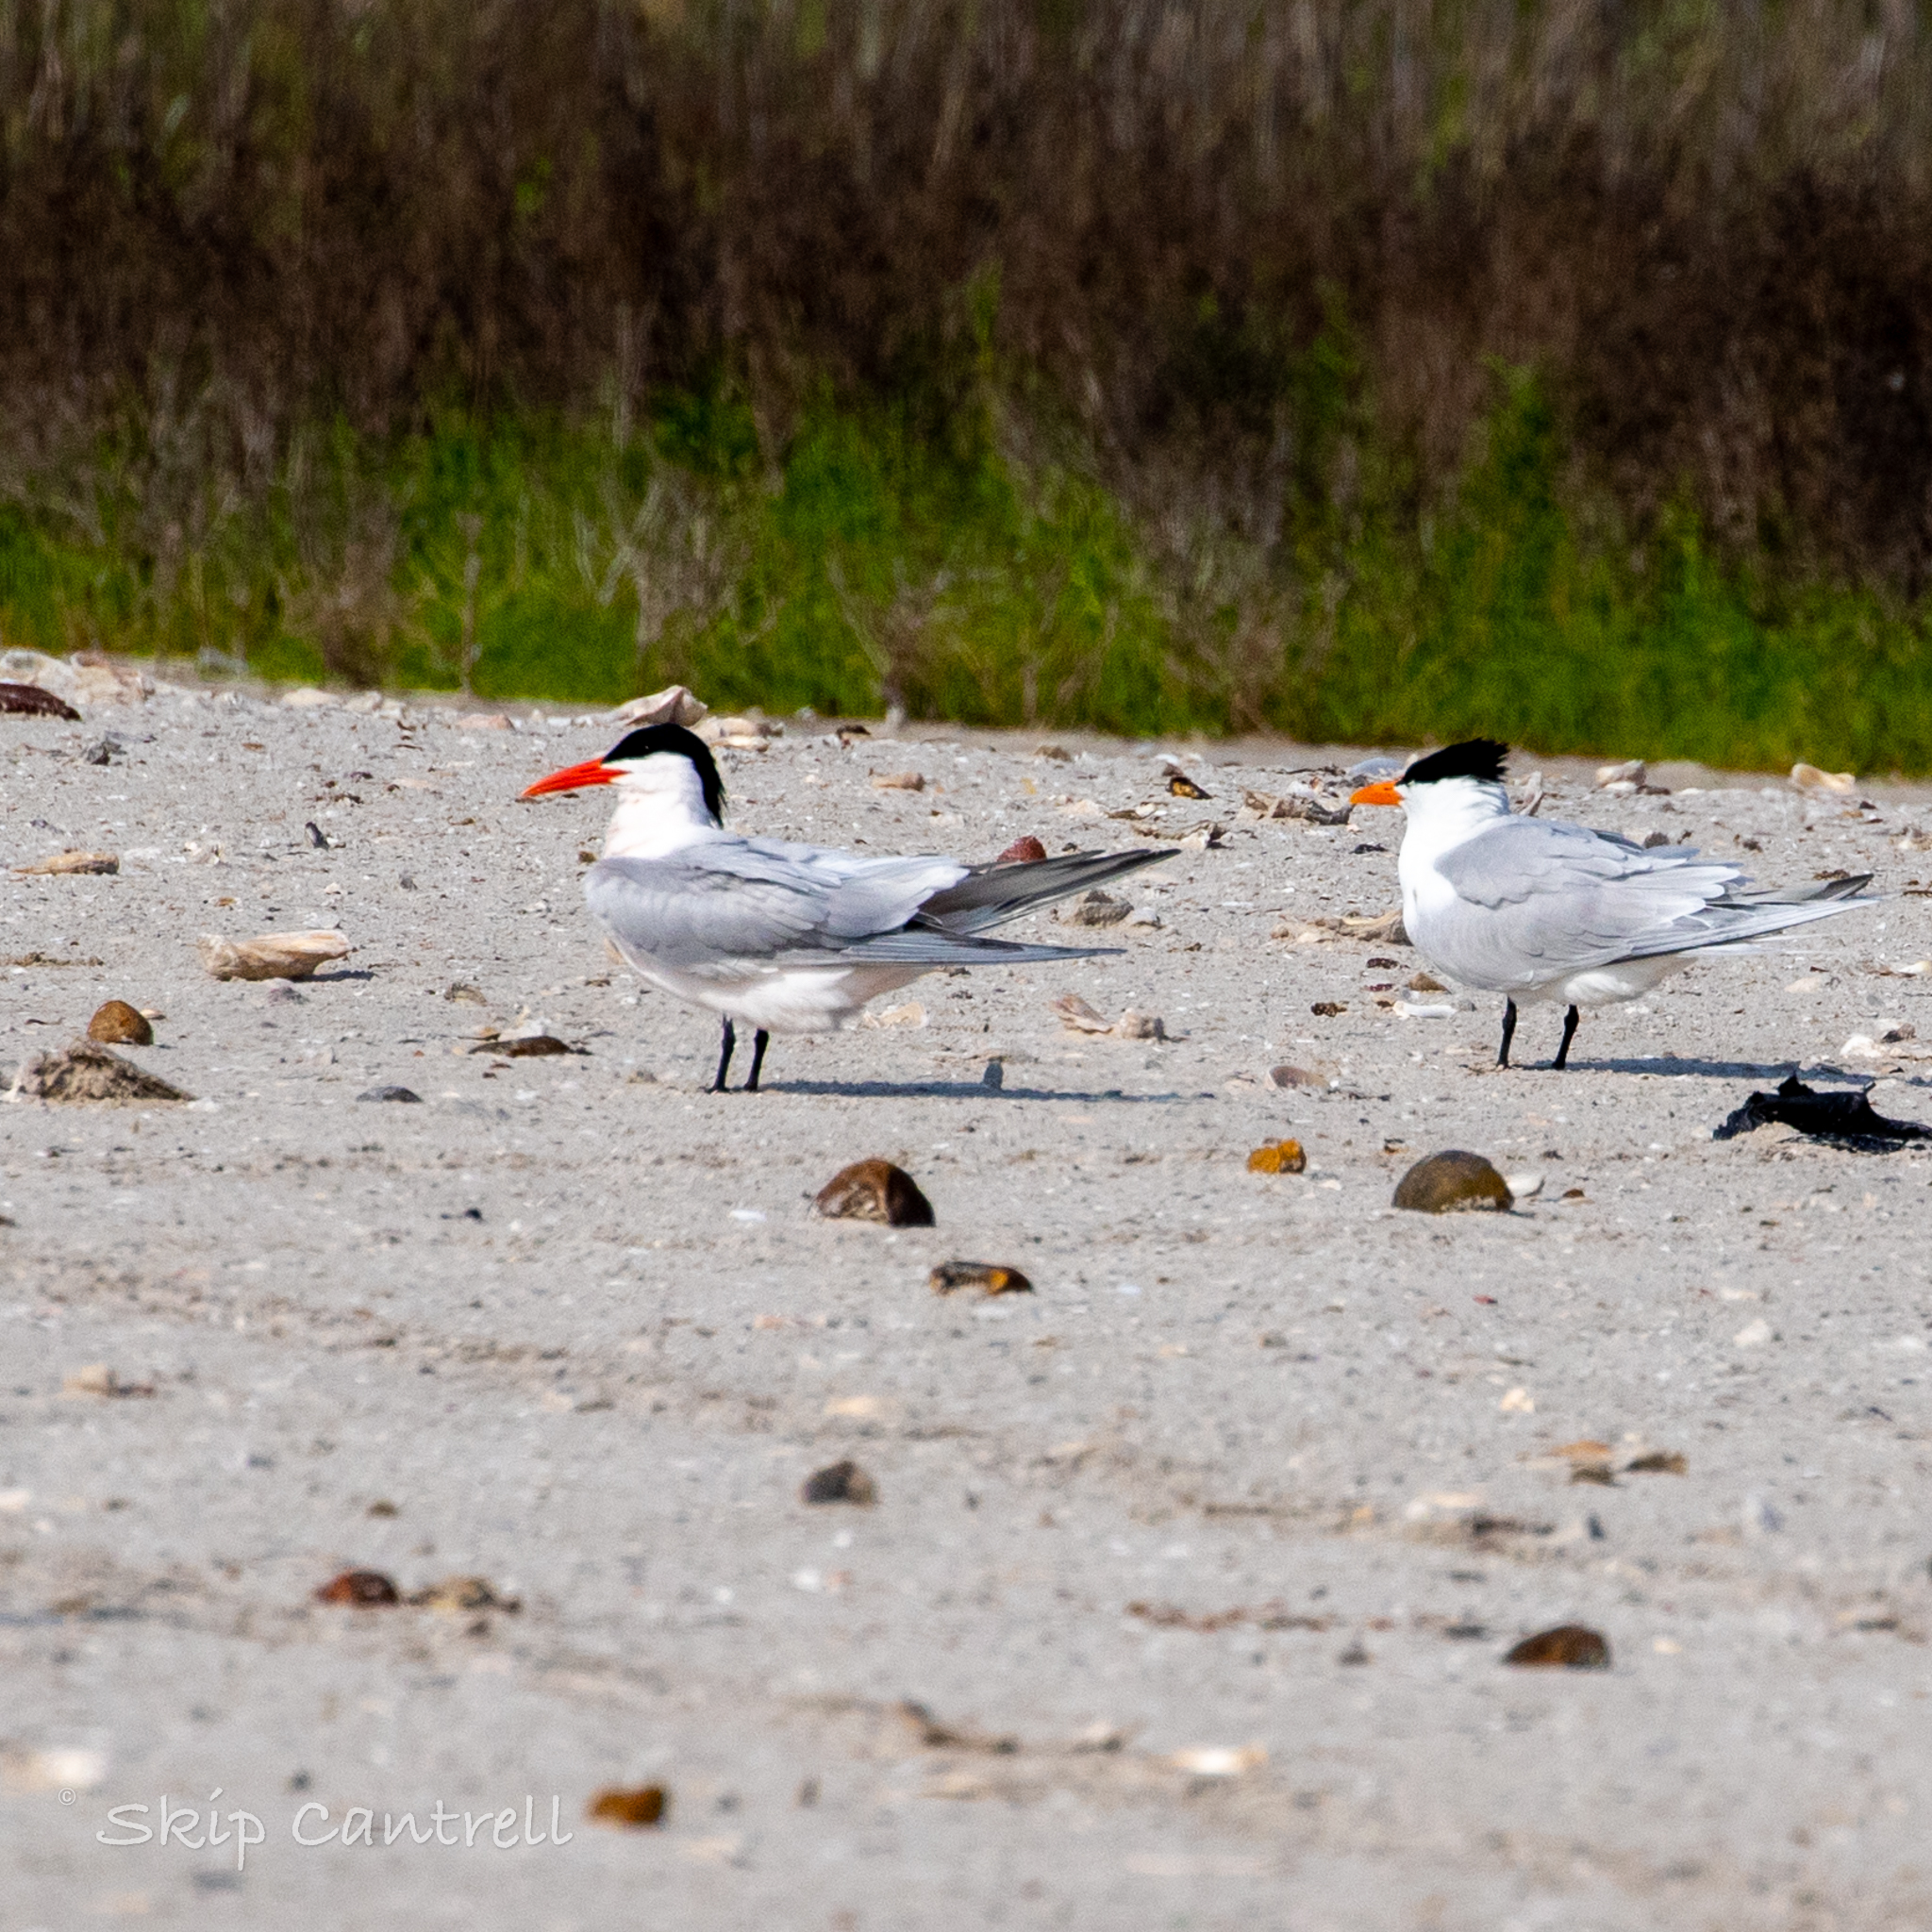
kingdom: Animalia
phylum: Chordata
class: Aves
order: Charadriiformes
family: Laridae
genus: Thalasseus
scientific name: Thalasseus maximus
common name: Royal tern
